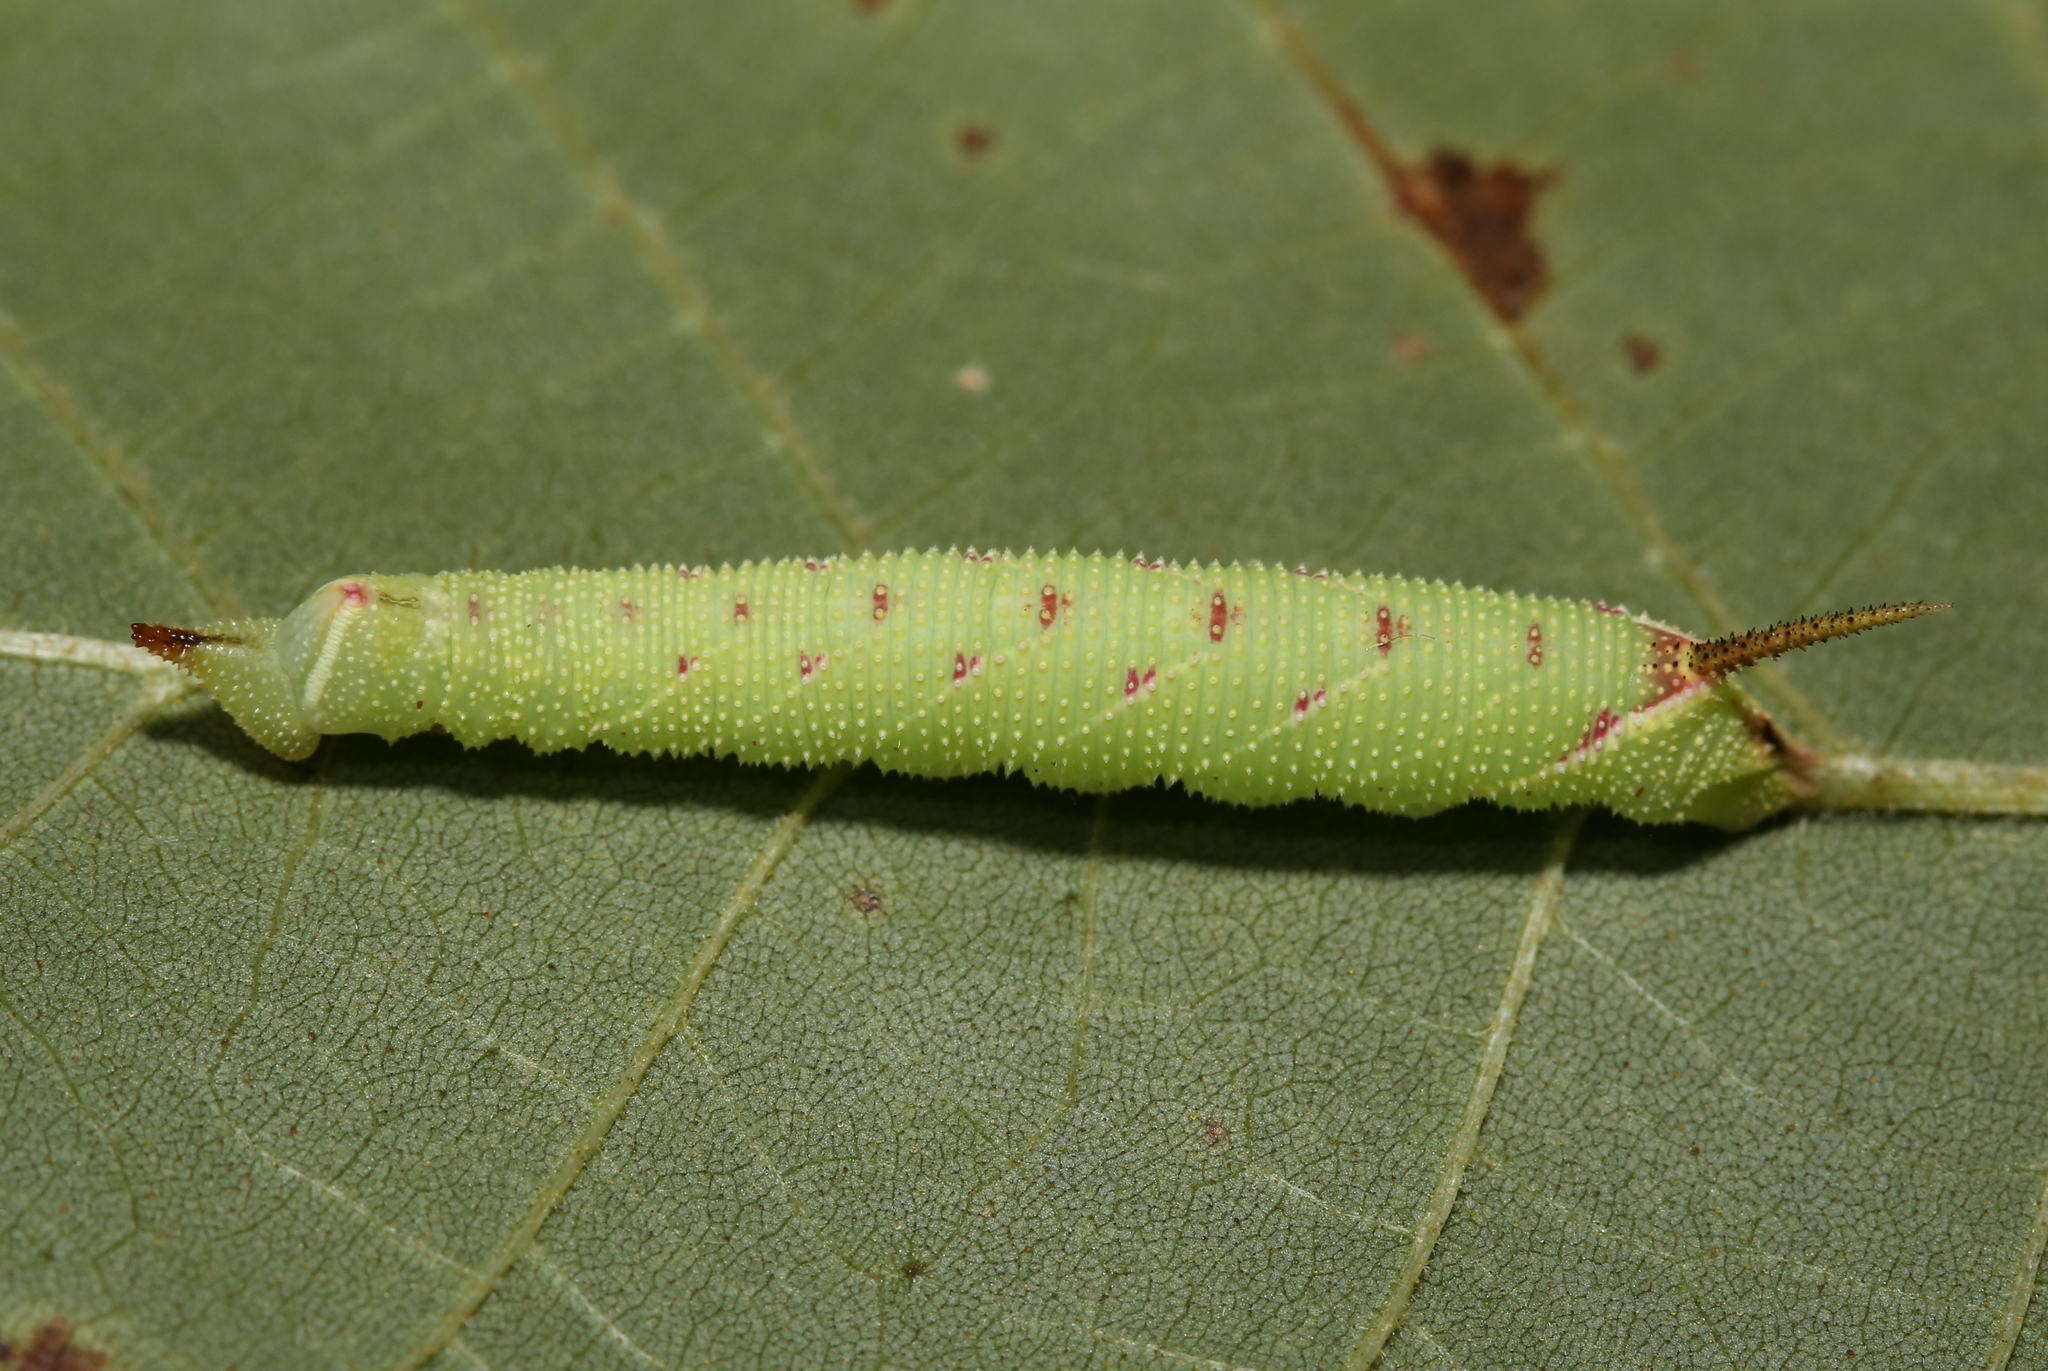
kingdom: Animalia
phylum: Arthropoda
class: Insecta
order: Lepidoptera
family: Sphingidae
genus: Amorpha
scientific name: Amorpha juglandis
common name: Walnut sphinx
